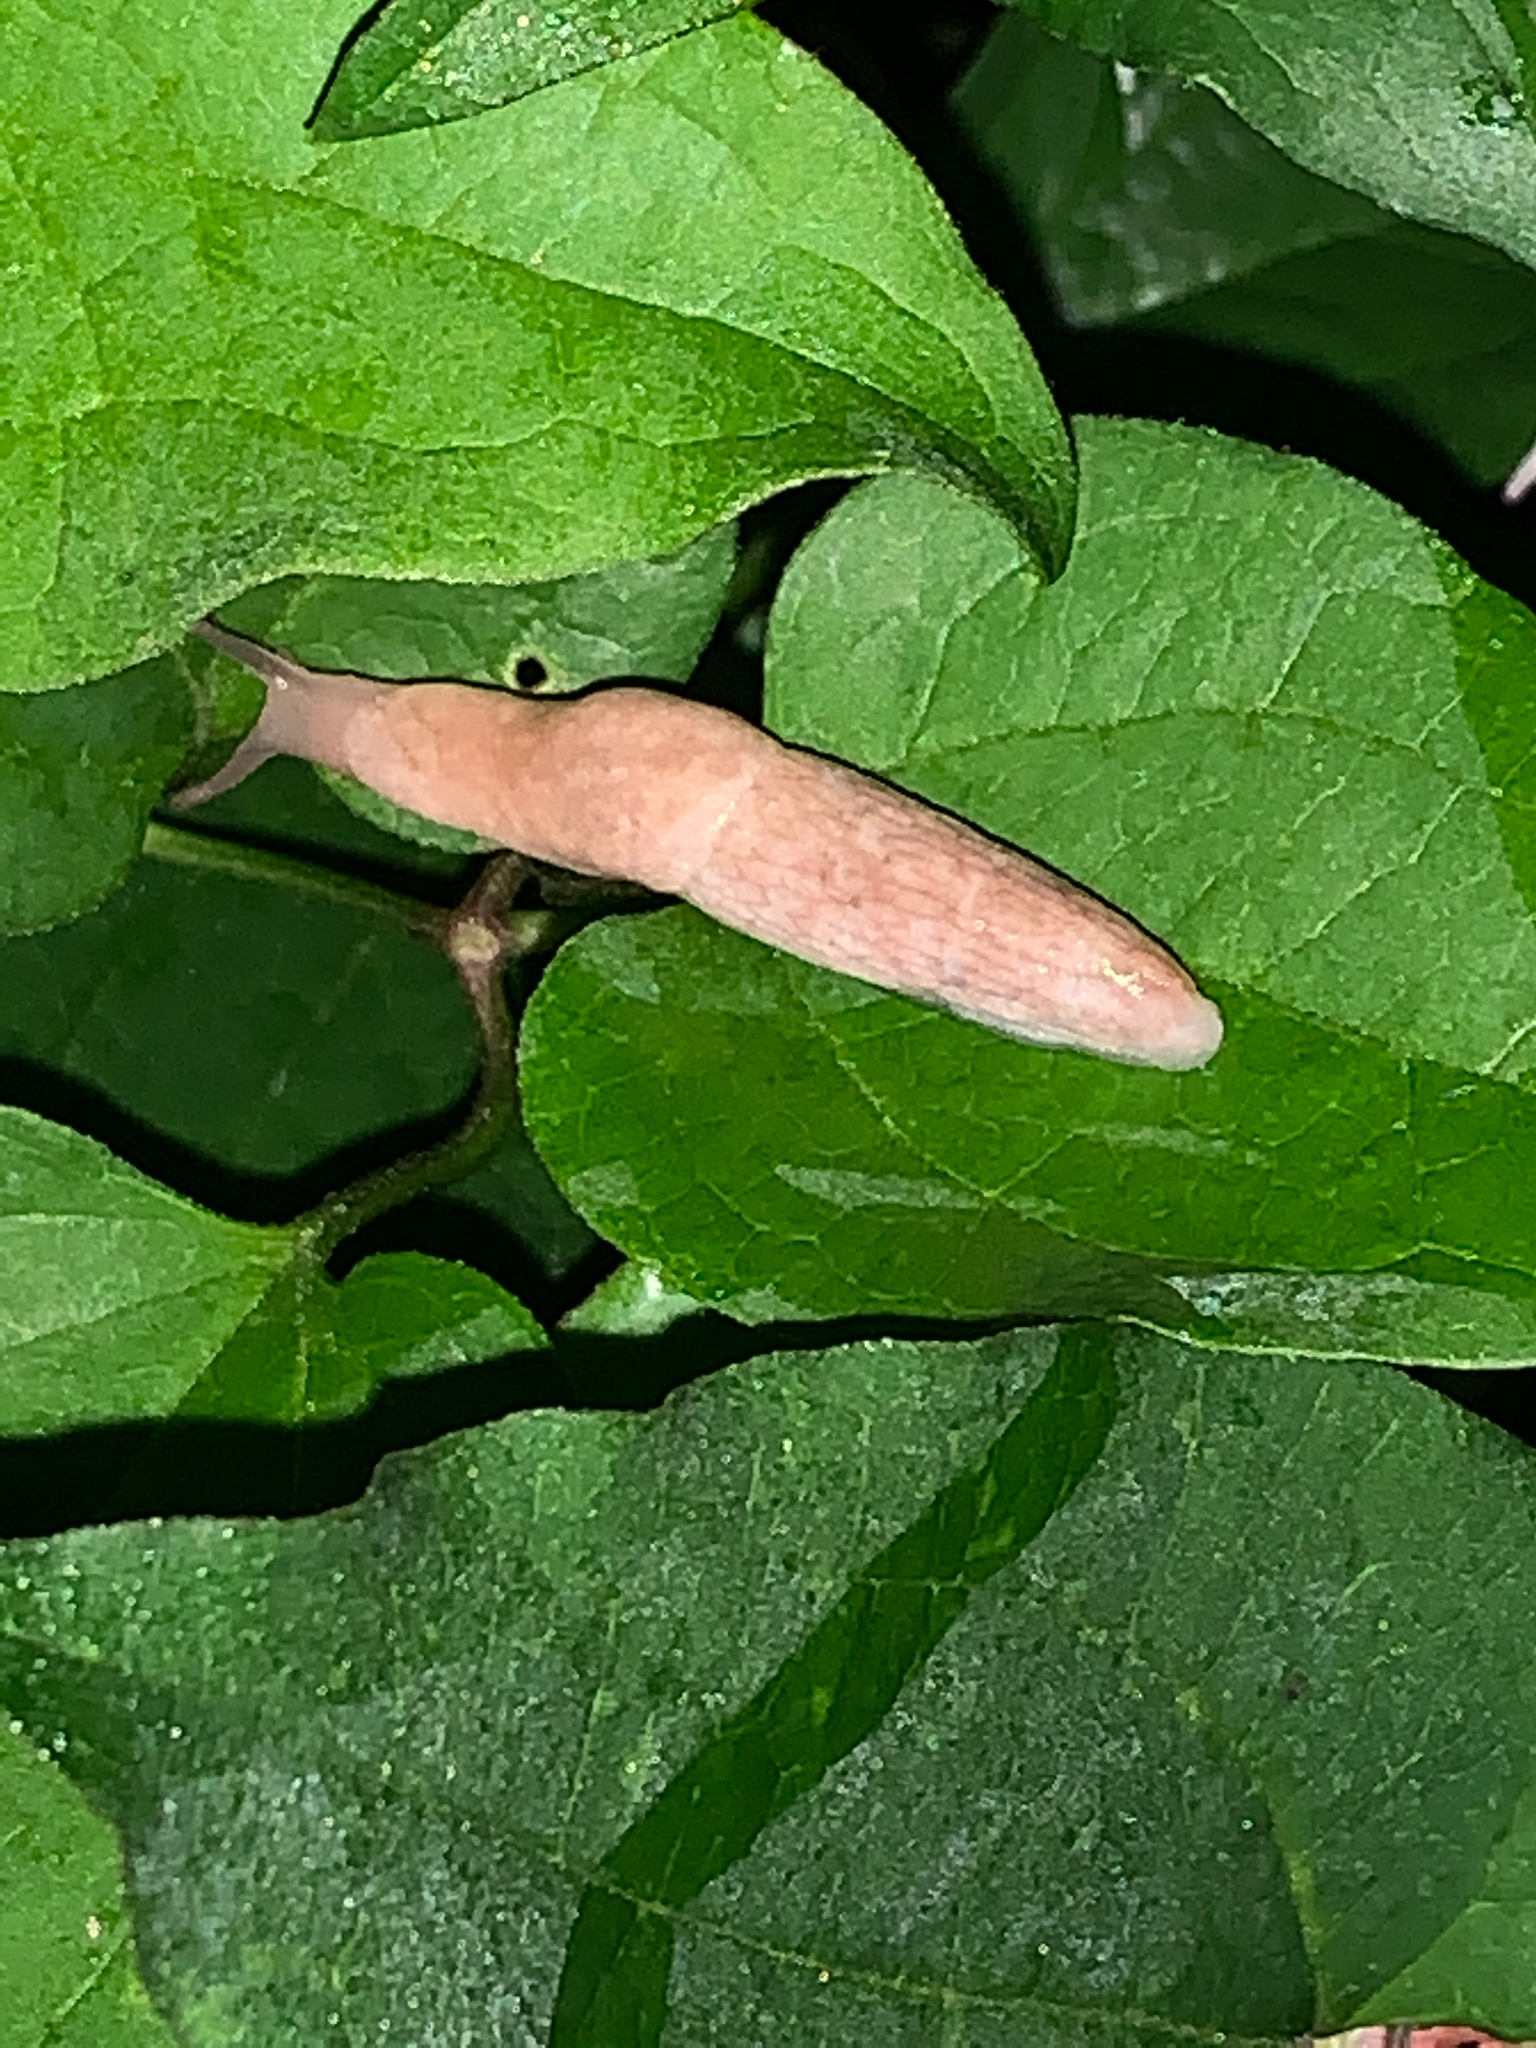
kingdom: Animalia
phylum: Mollusca
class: Gastropoda
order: Stylommatophora
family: Agriolimacidae
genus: Deroceras
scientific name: Deroceras reticulatum
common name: Gray field slug
